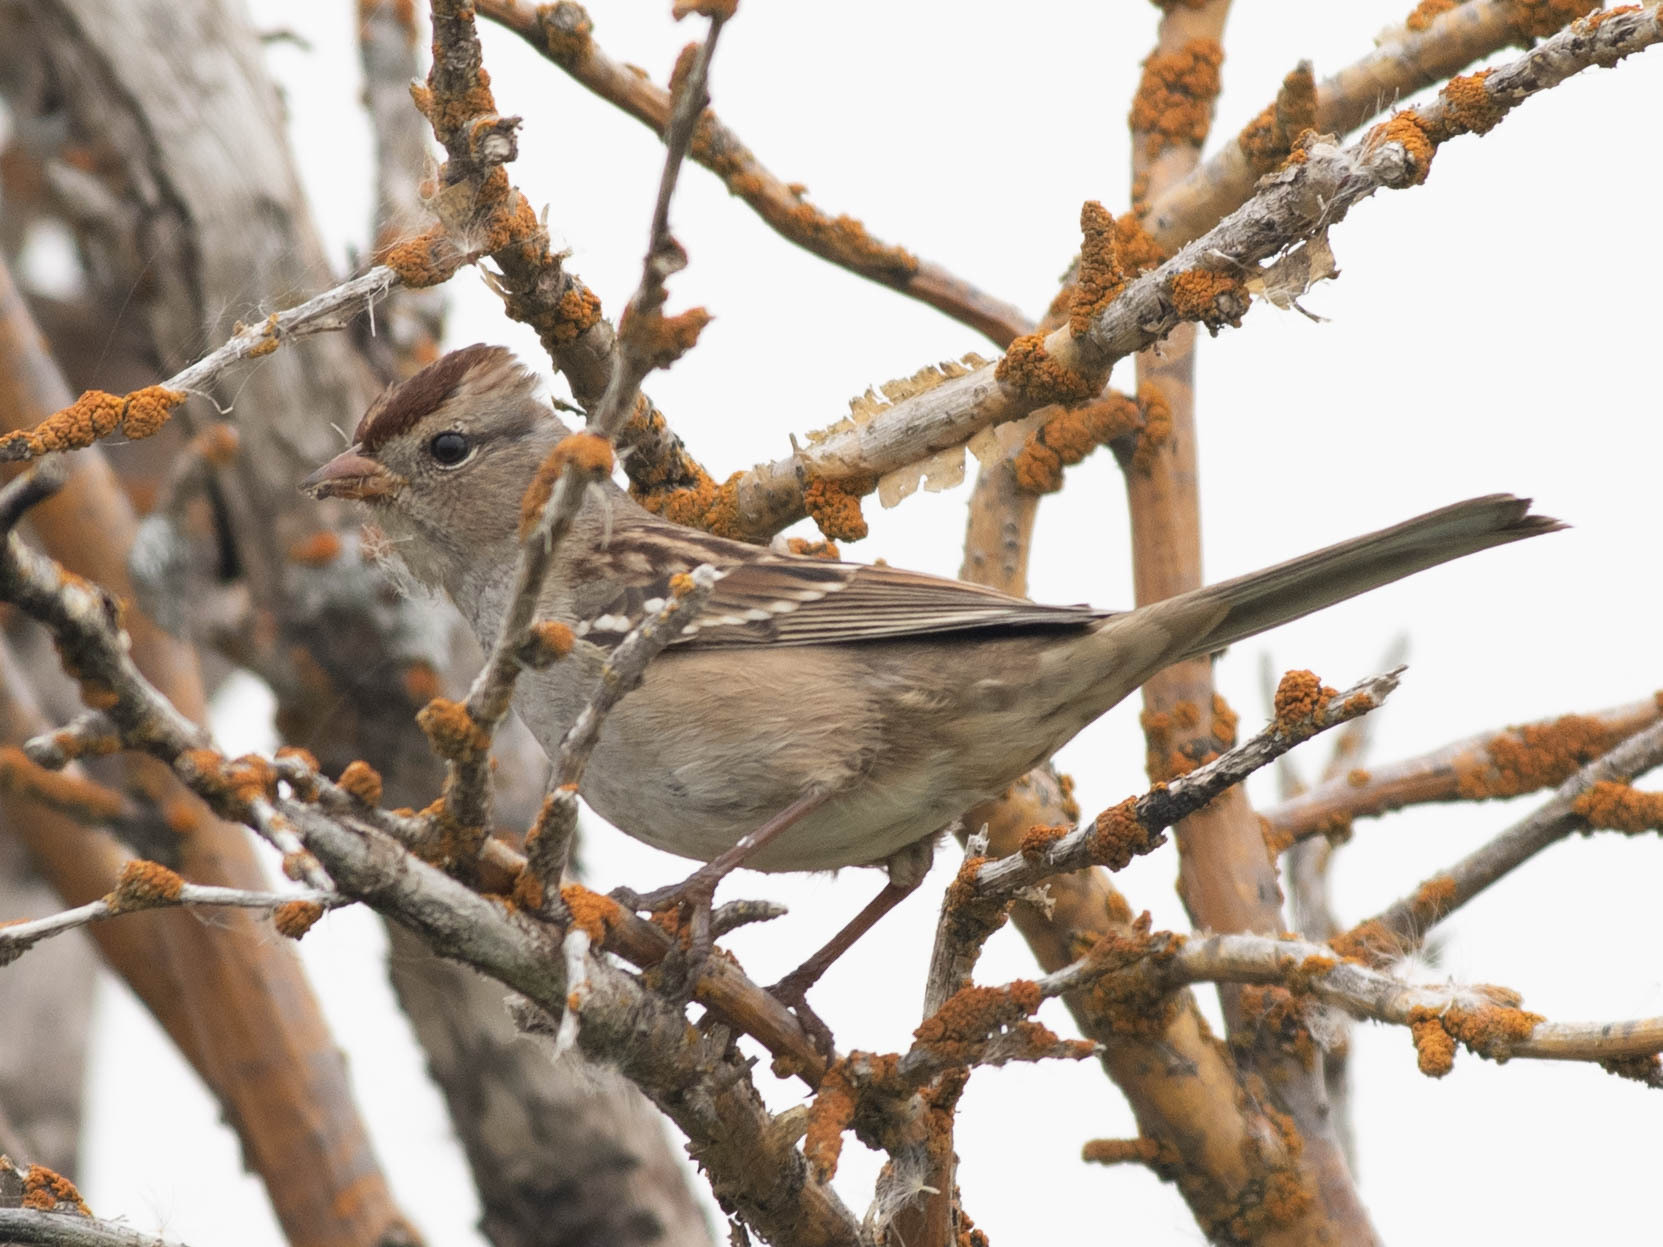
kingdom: Animalia
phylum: Chordata
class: Aves
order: Passeriformes
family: Passerellidae
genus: Zonotrichia
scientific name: Zonotrichia leucophrys
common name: White-crowned sparrow
